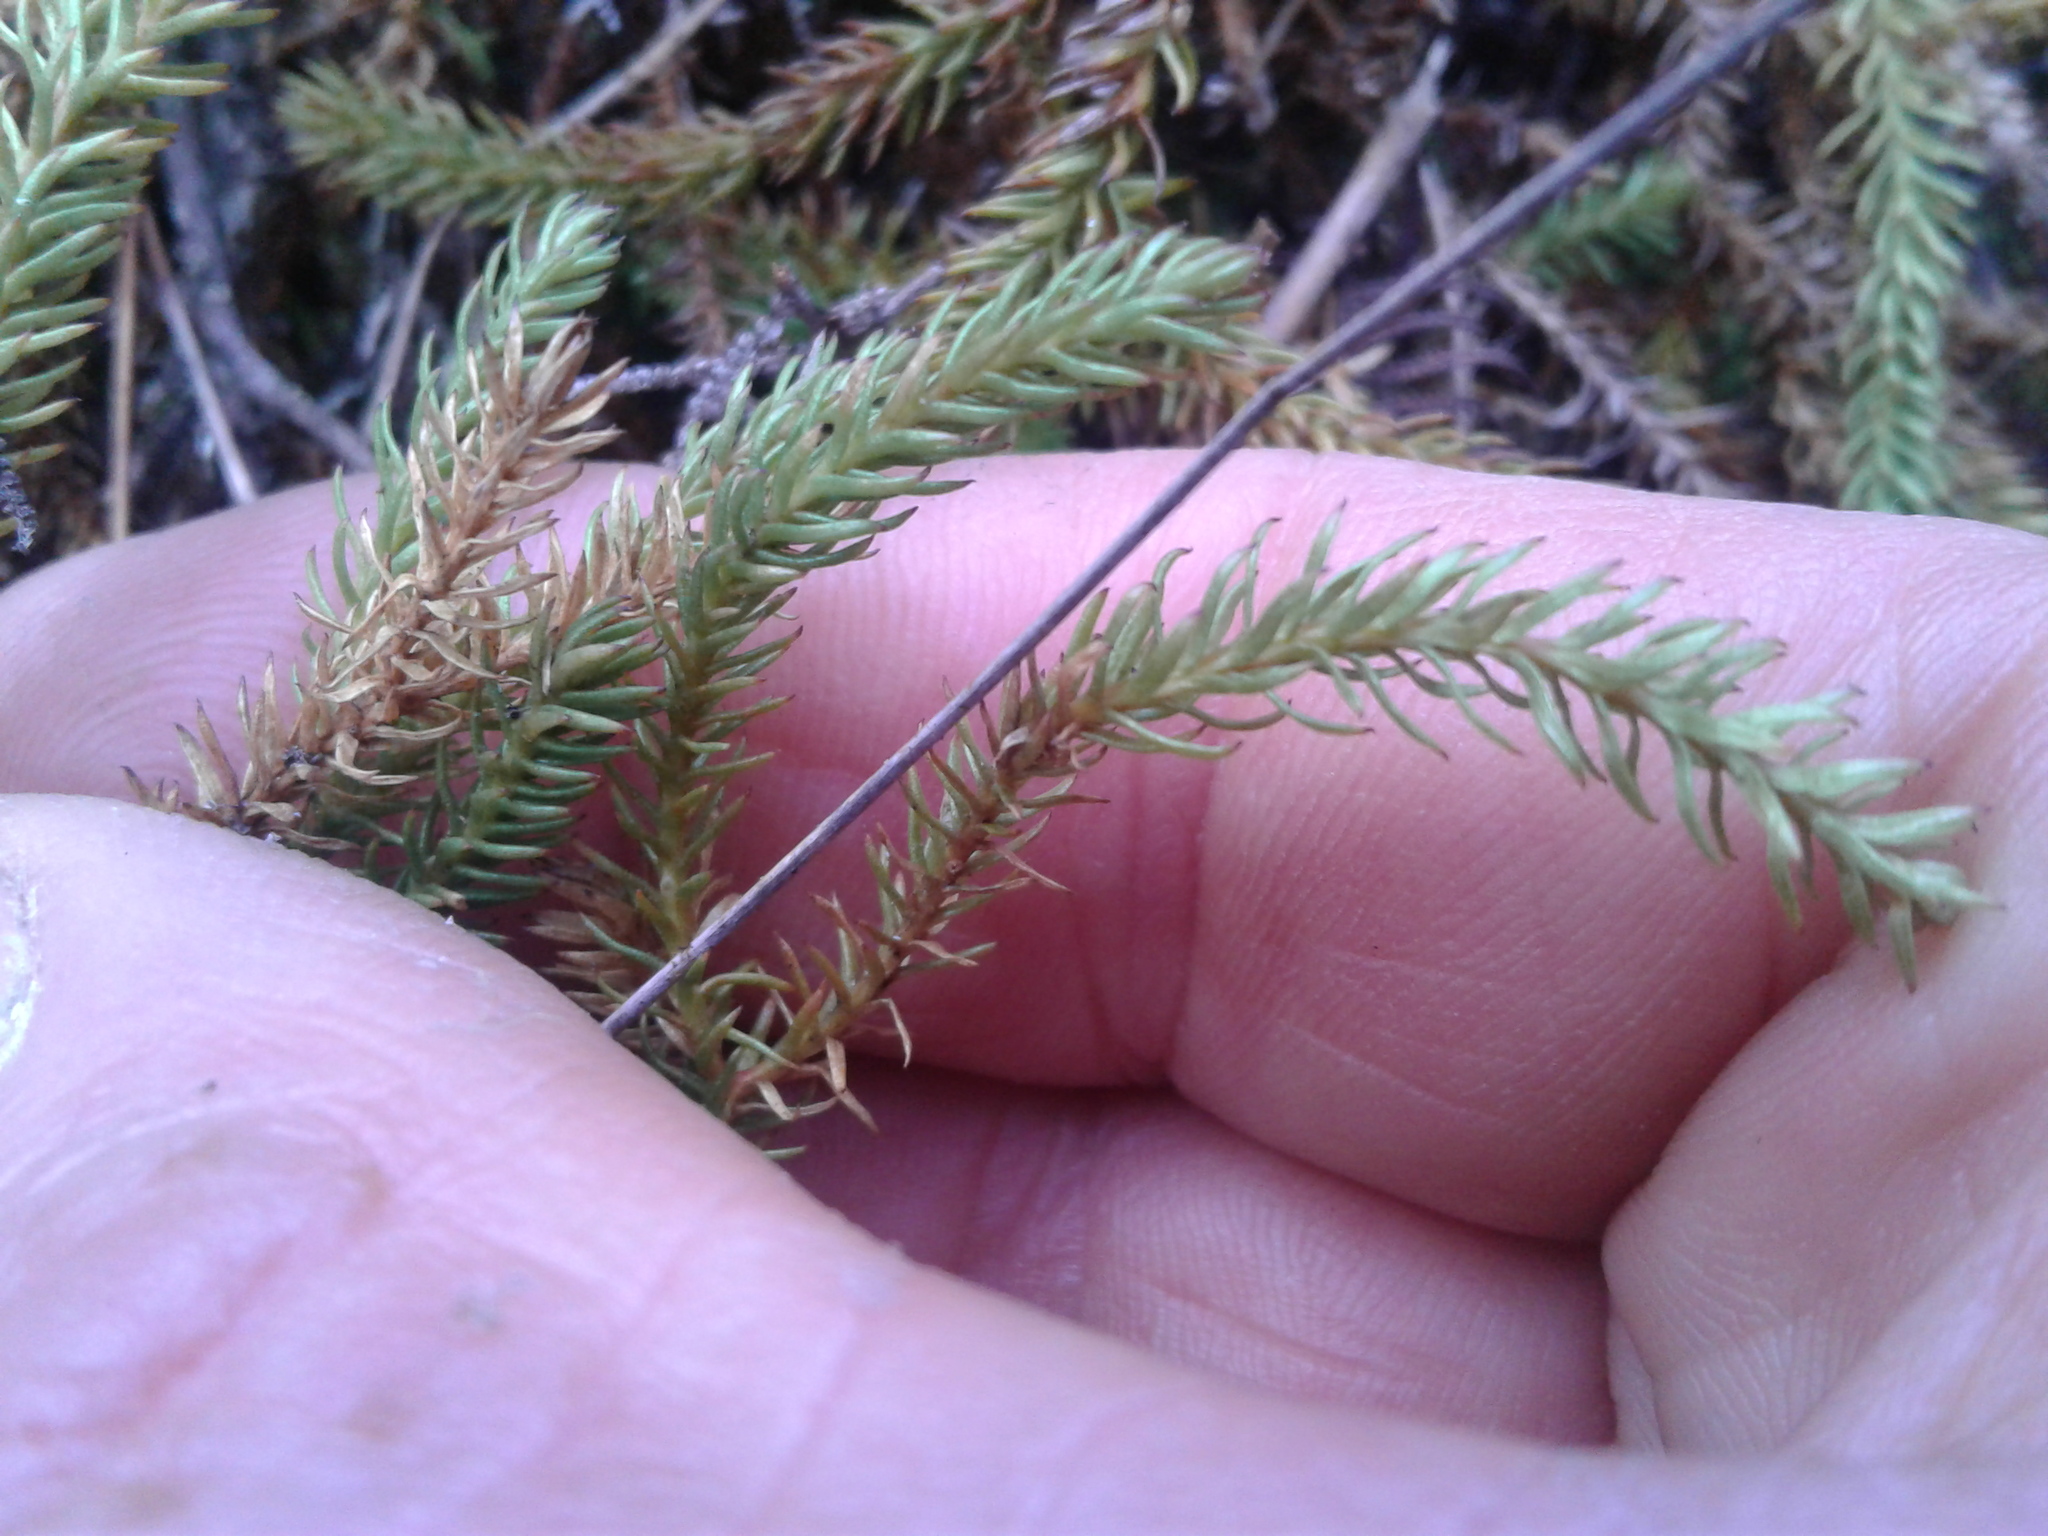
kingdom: Plantae
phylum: Tracheophyta
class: Lycopodiopsida
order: Lycopodiales
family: Lycopodiaceae
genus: Lateristachys
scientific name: Lateristachys lateralis
